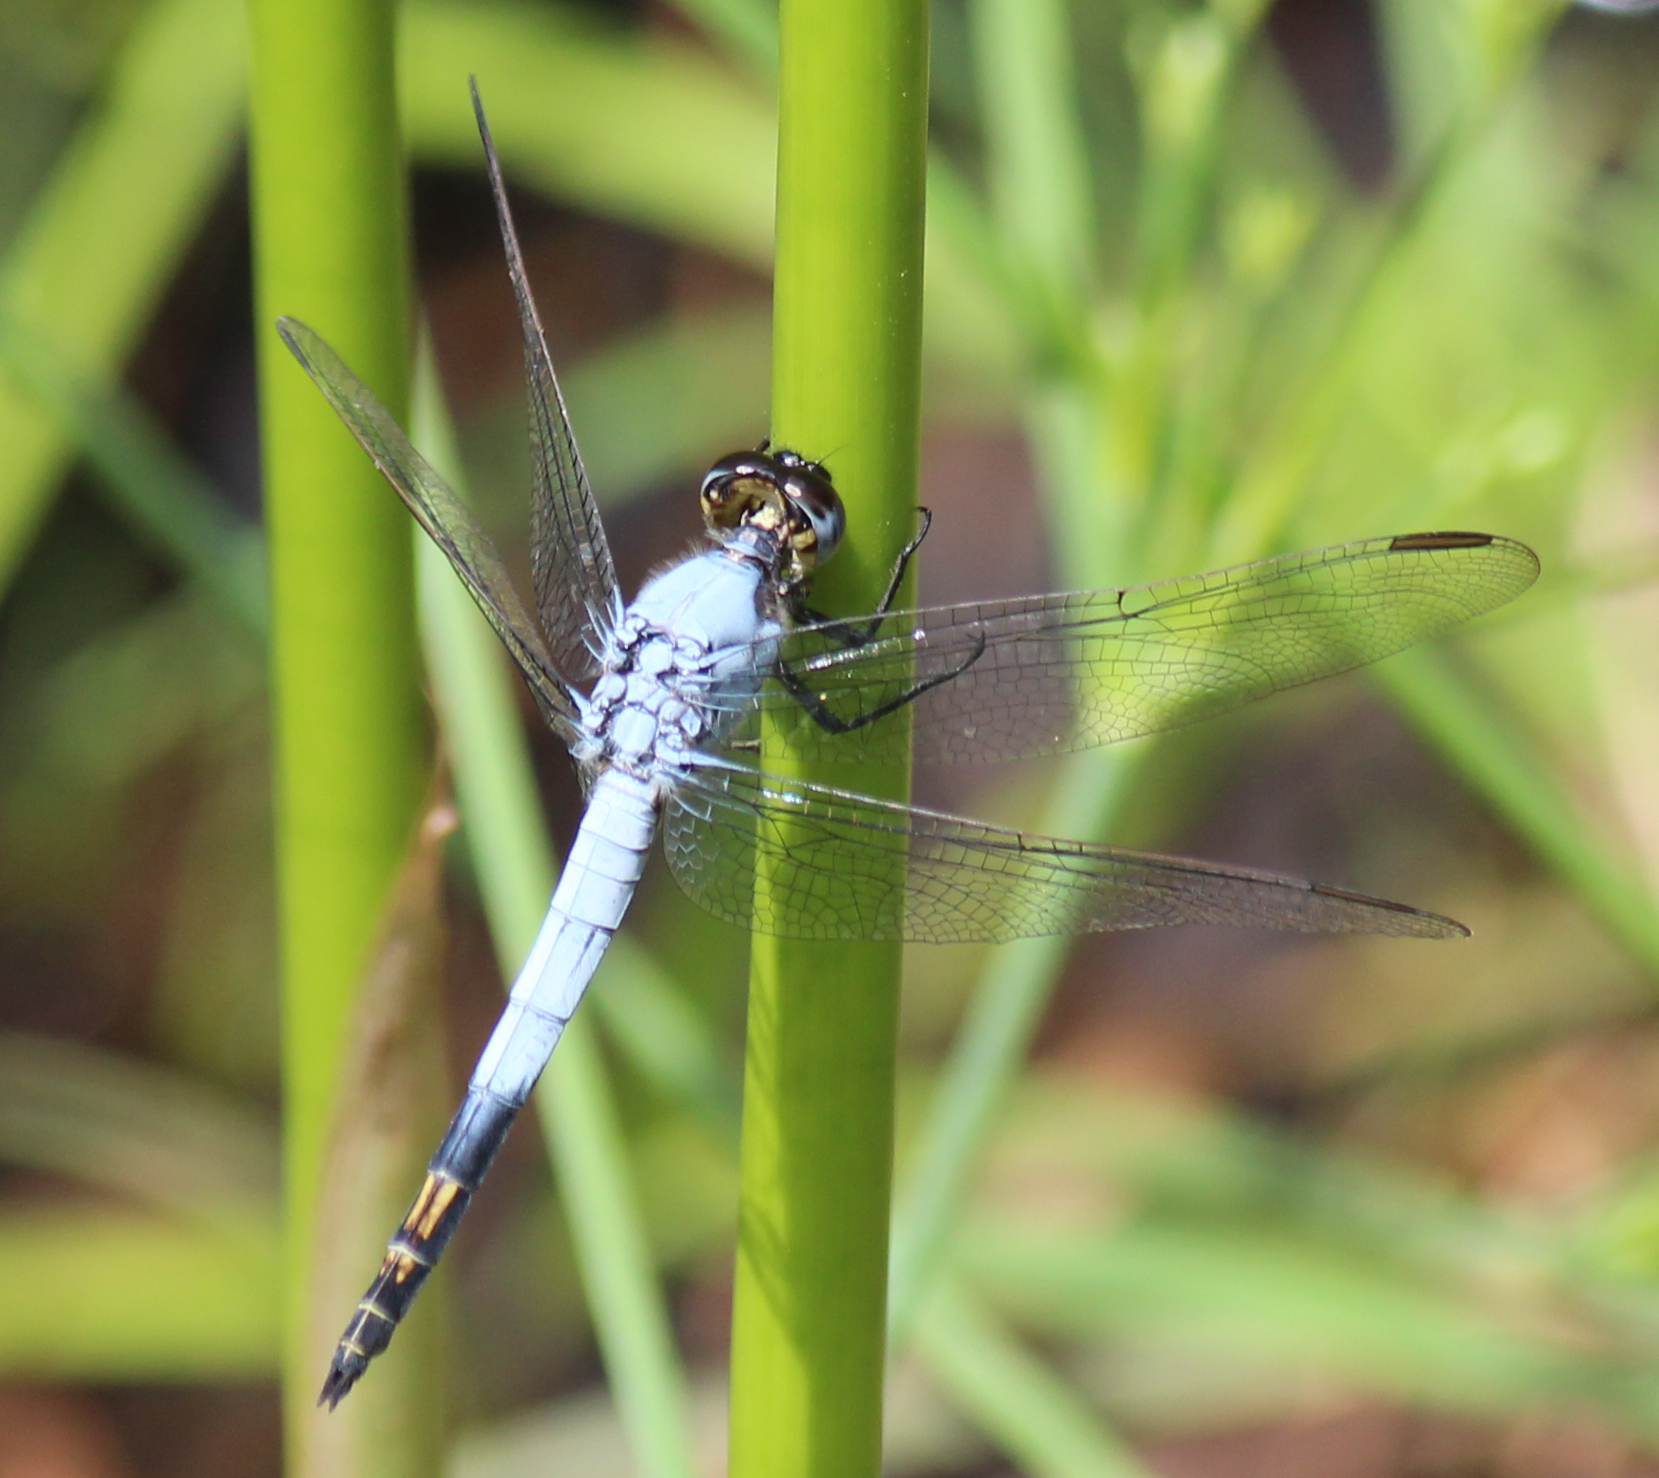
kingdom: Animalia
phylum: Arthropoda
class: Insecta
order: Odonata
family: Libellulidae
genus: Nesciothemis
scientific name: Nesciothemis farinosa
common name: Eastern blacktail
